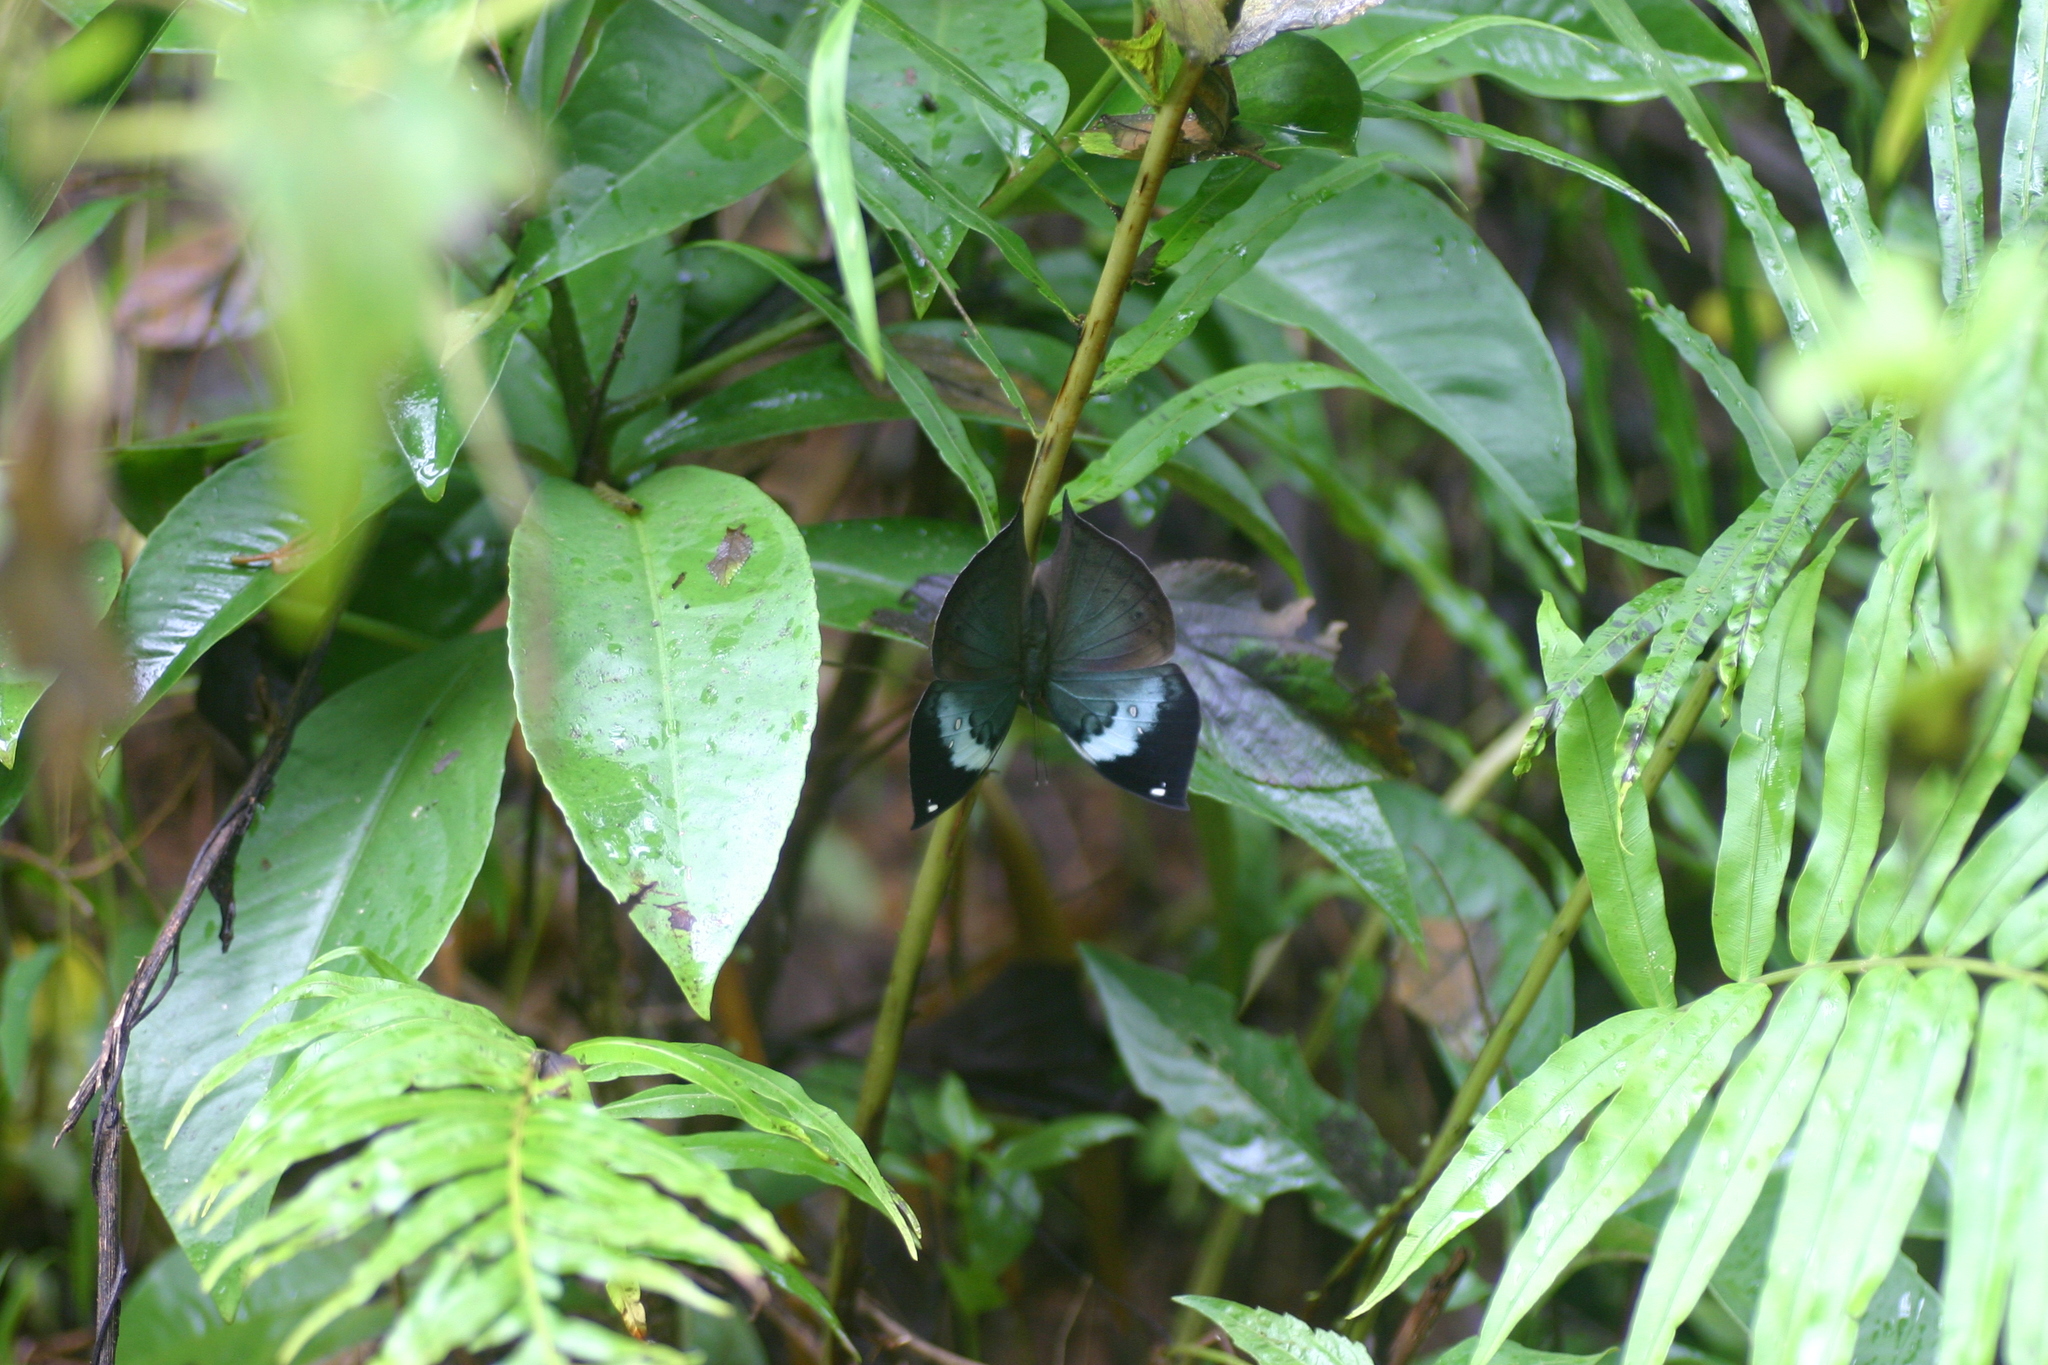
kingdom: Animalia
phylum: Arthropoda
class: Insecta
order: Lepidoptera
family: Nymphalidae
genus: Kallima
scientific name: Kallima horsfieldii
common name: Sahyadri blue oakleaf
